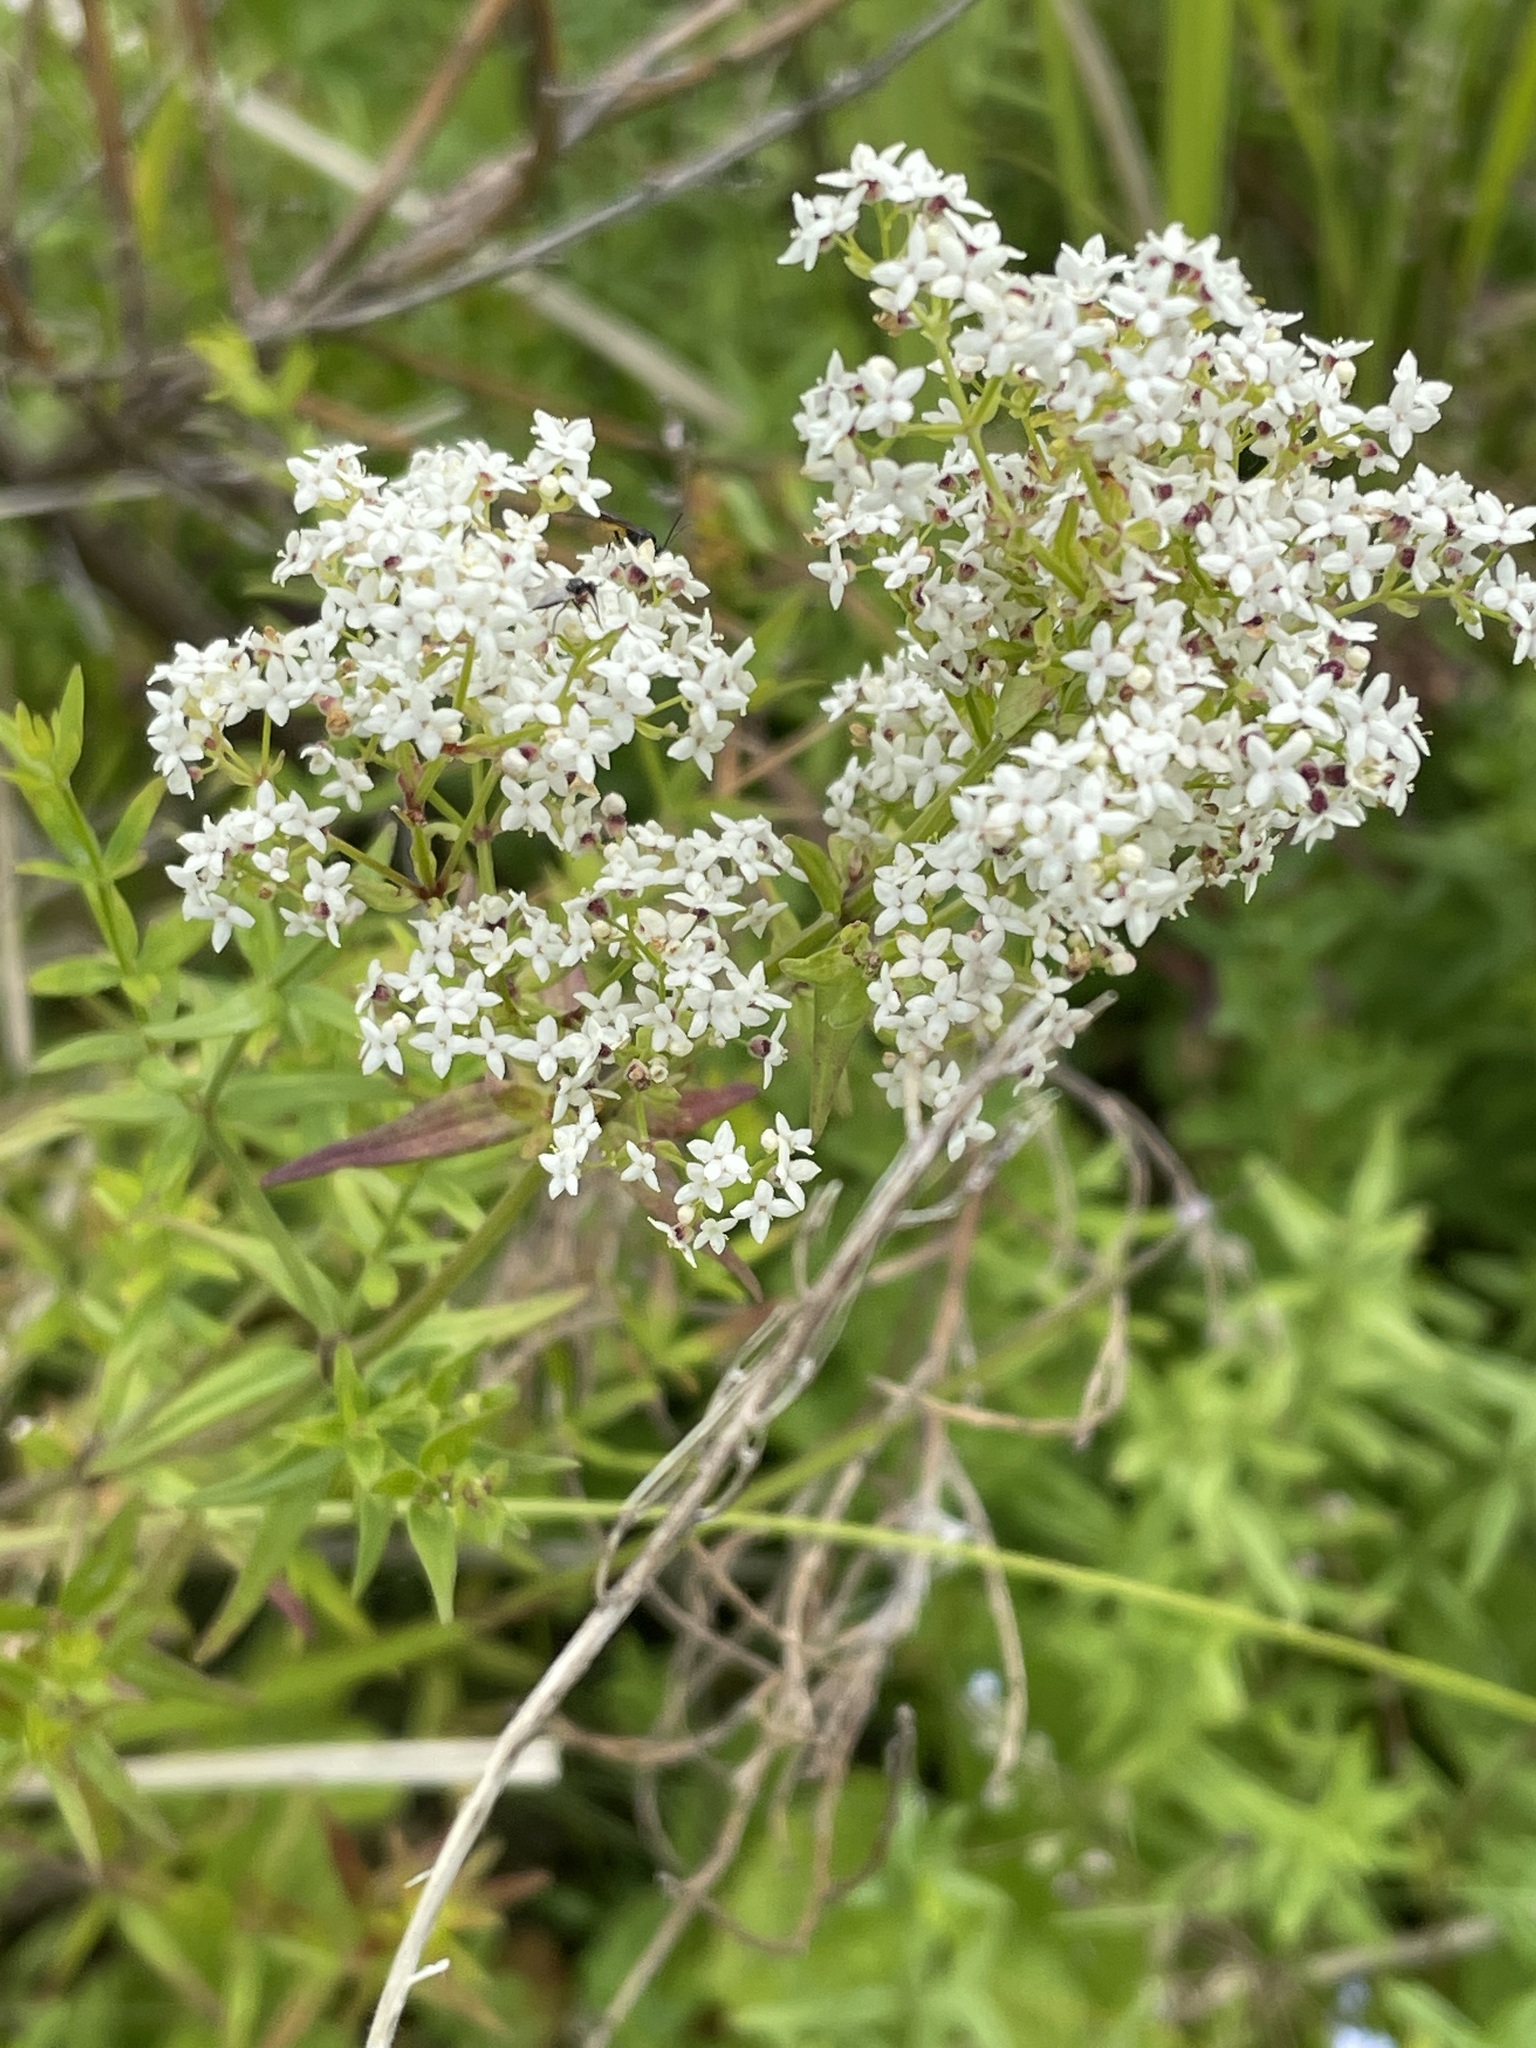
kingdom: Plantae
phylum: Tracheophyta
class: Magnoliopsida
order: Gentianales
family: Rubiaceae
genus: Galium
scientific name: Galium boreale
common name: Northern bedstraw
